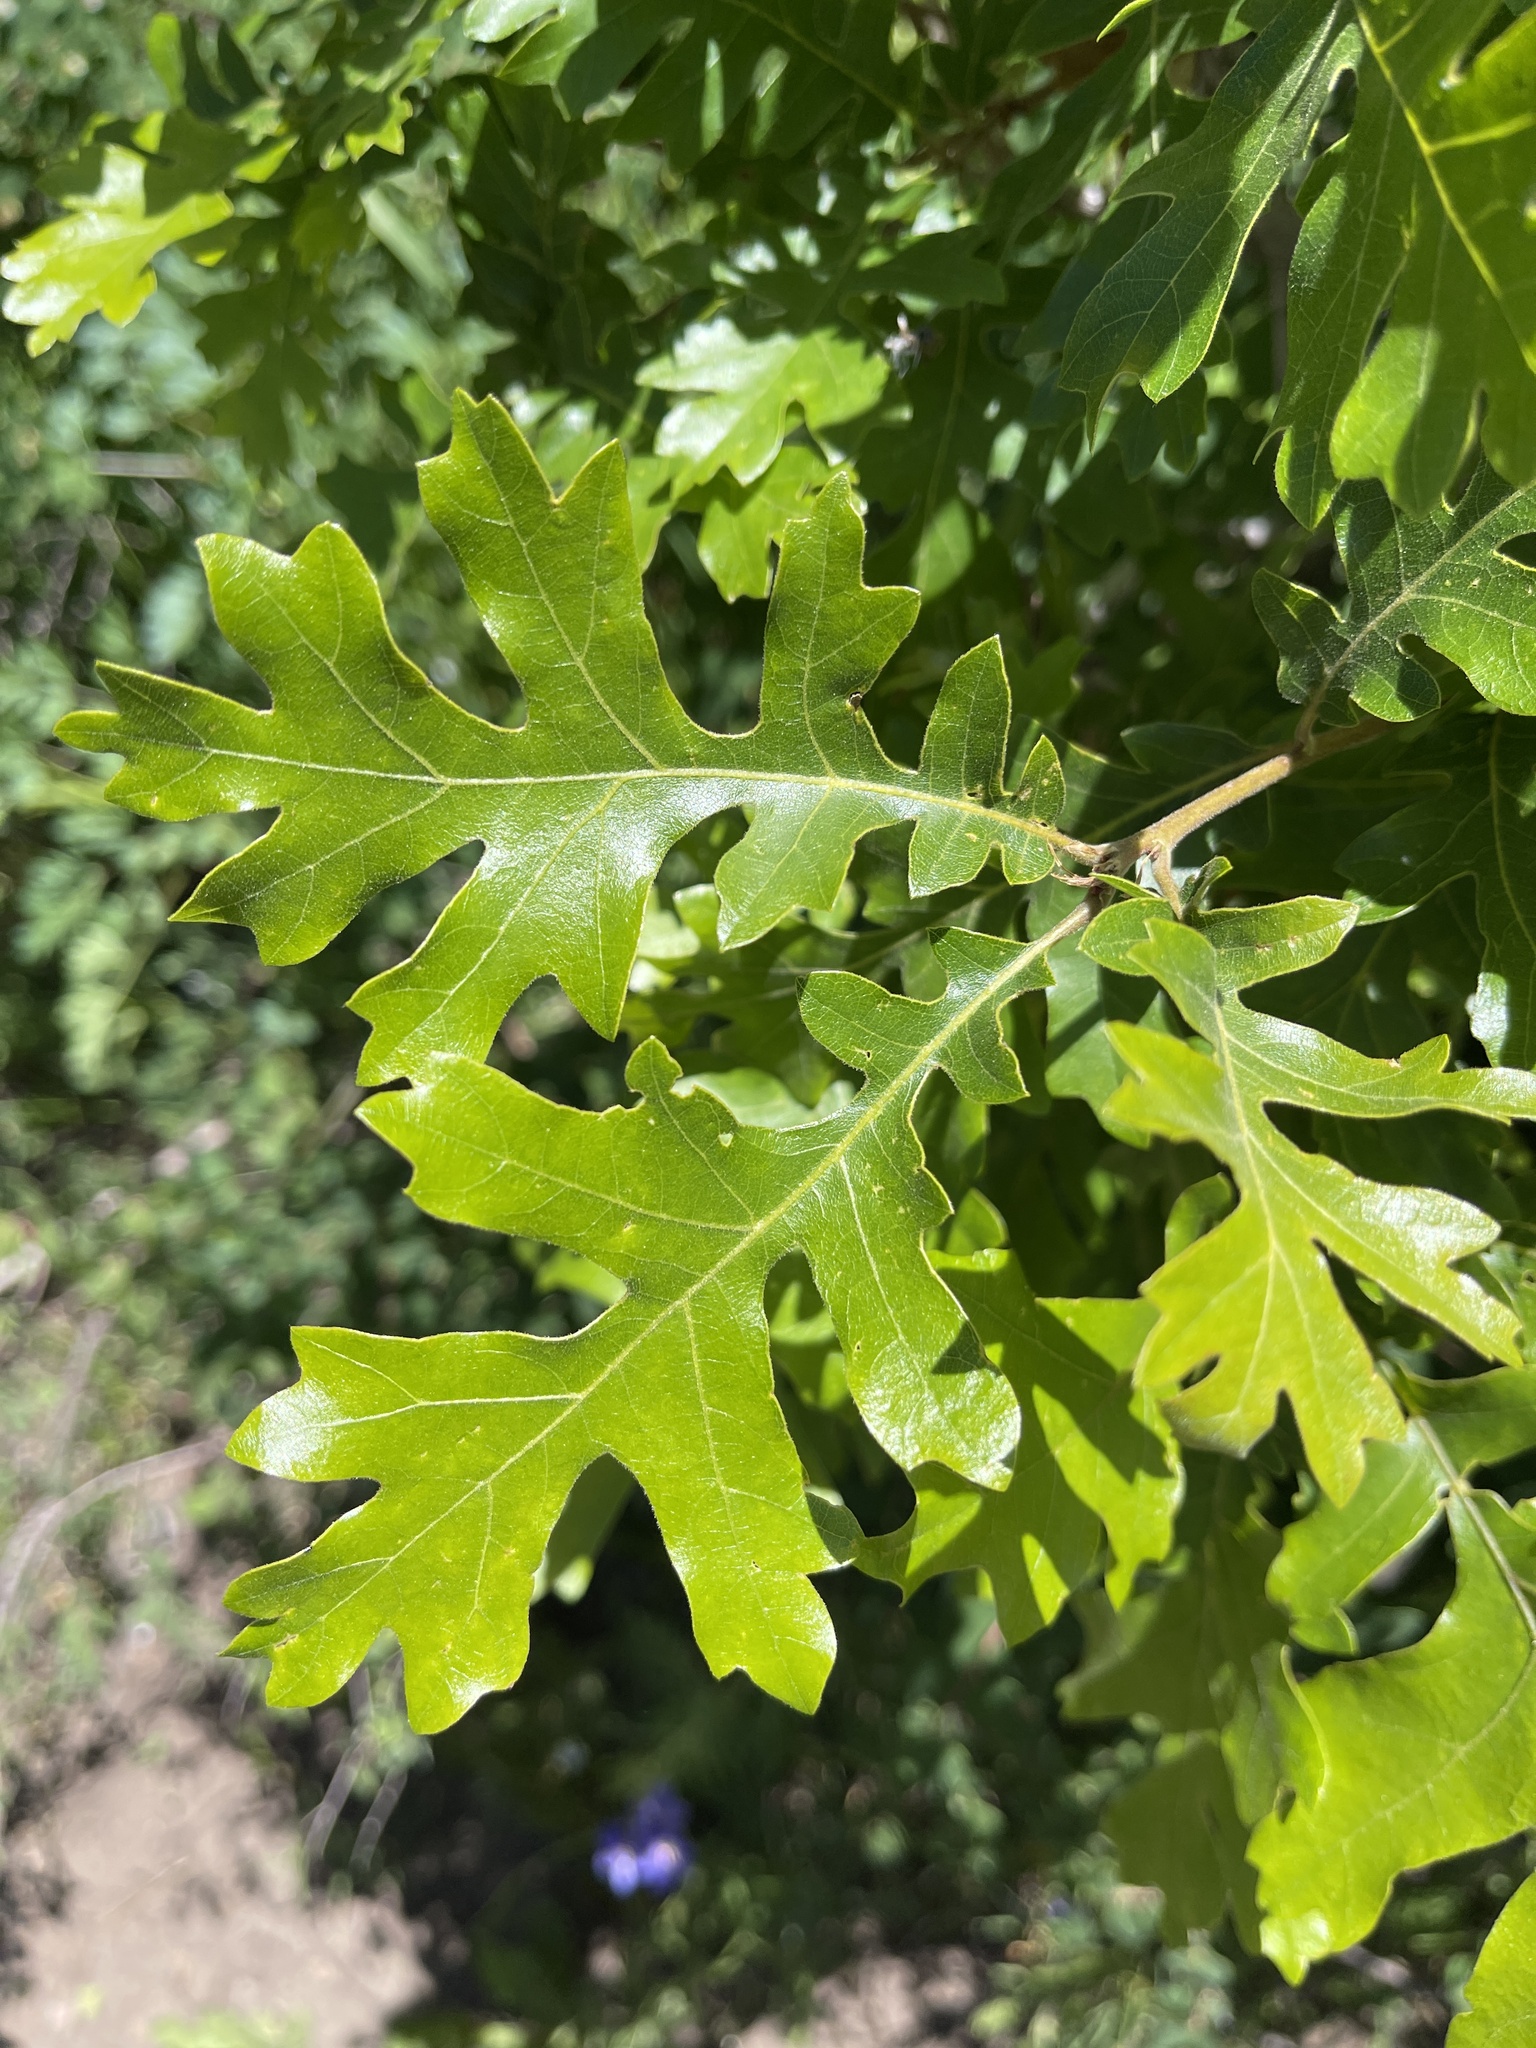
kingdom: Plantae
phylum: Tracheophyta
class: Magnoliopsida
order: Fagales
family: Fagaceae
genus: Quercus
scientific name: Quercus gambelii
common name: Gambel oak
